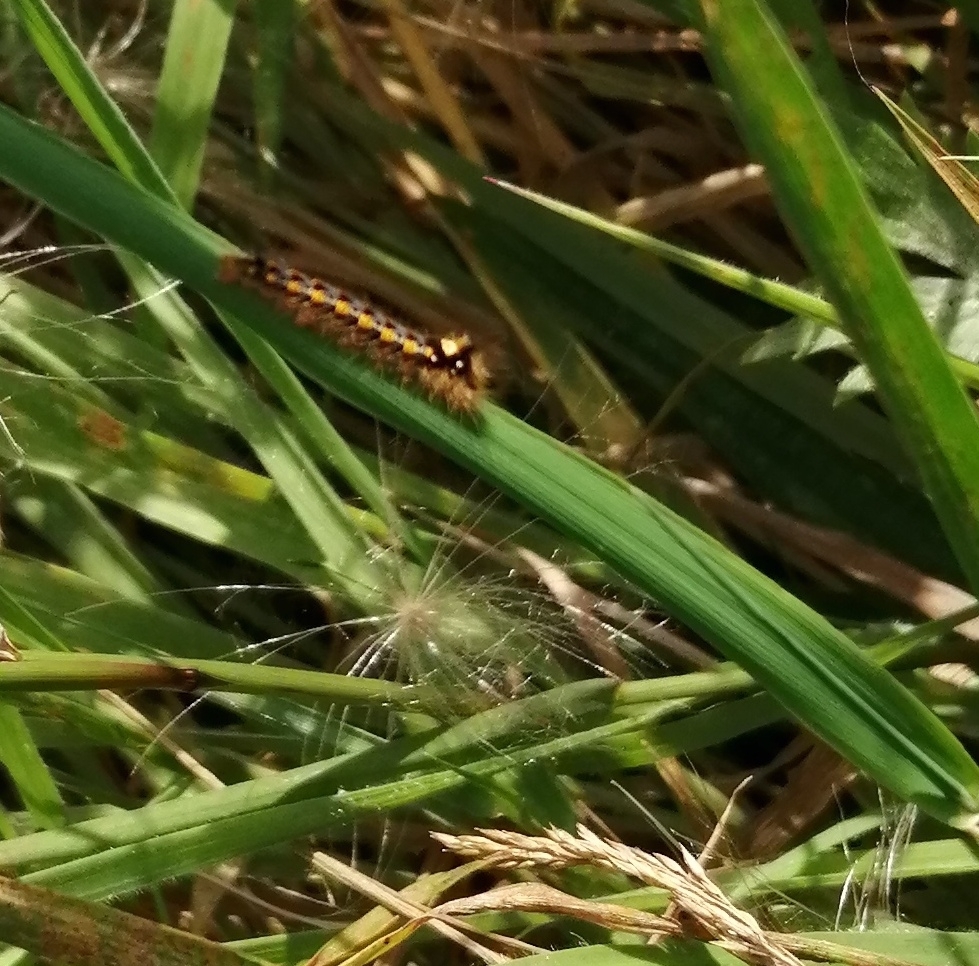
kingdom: Animalia
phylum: Arthropoda
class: Insecta
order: Lepidoptera
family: Lasiocampidae
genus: Euthrix
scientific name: Euthrix potatoria
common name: Drinker
